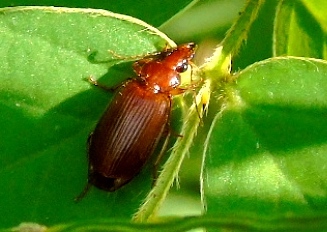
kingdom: Animalia
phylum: Arthropoda
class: Insecta
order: Coleoptera
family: Carabidae
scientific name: Carabidae
